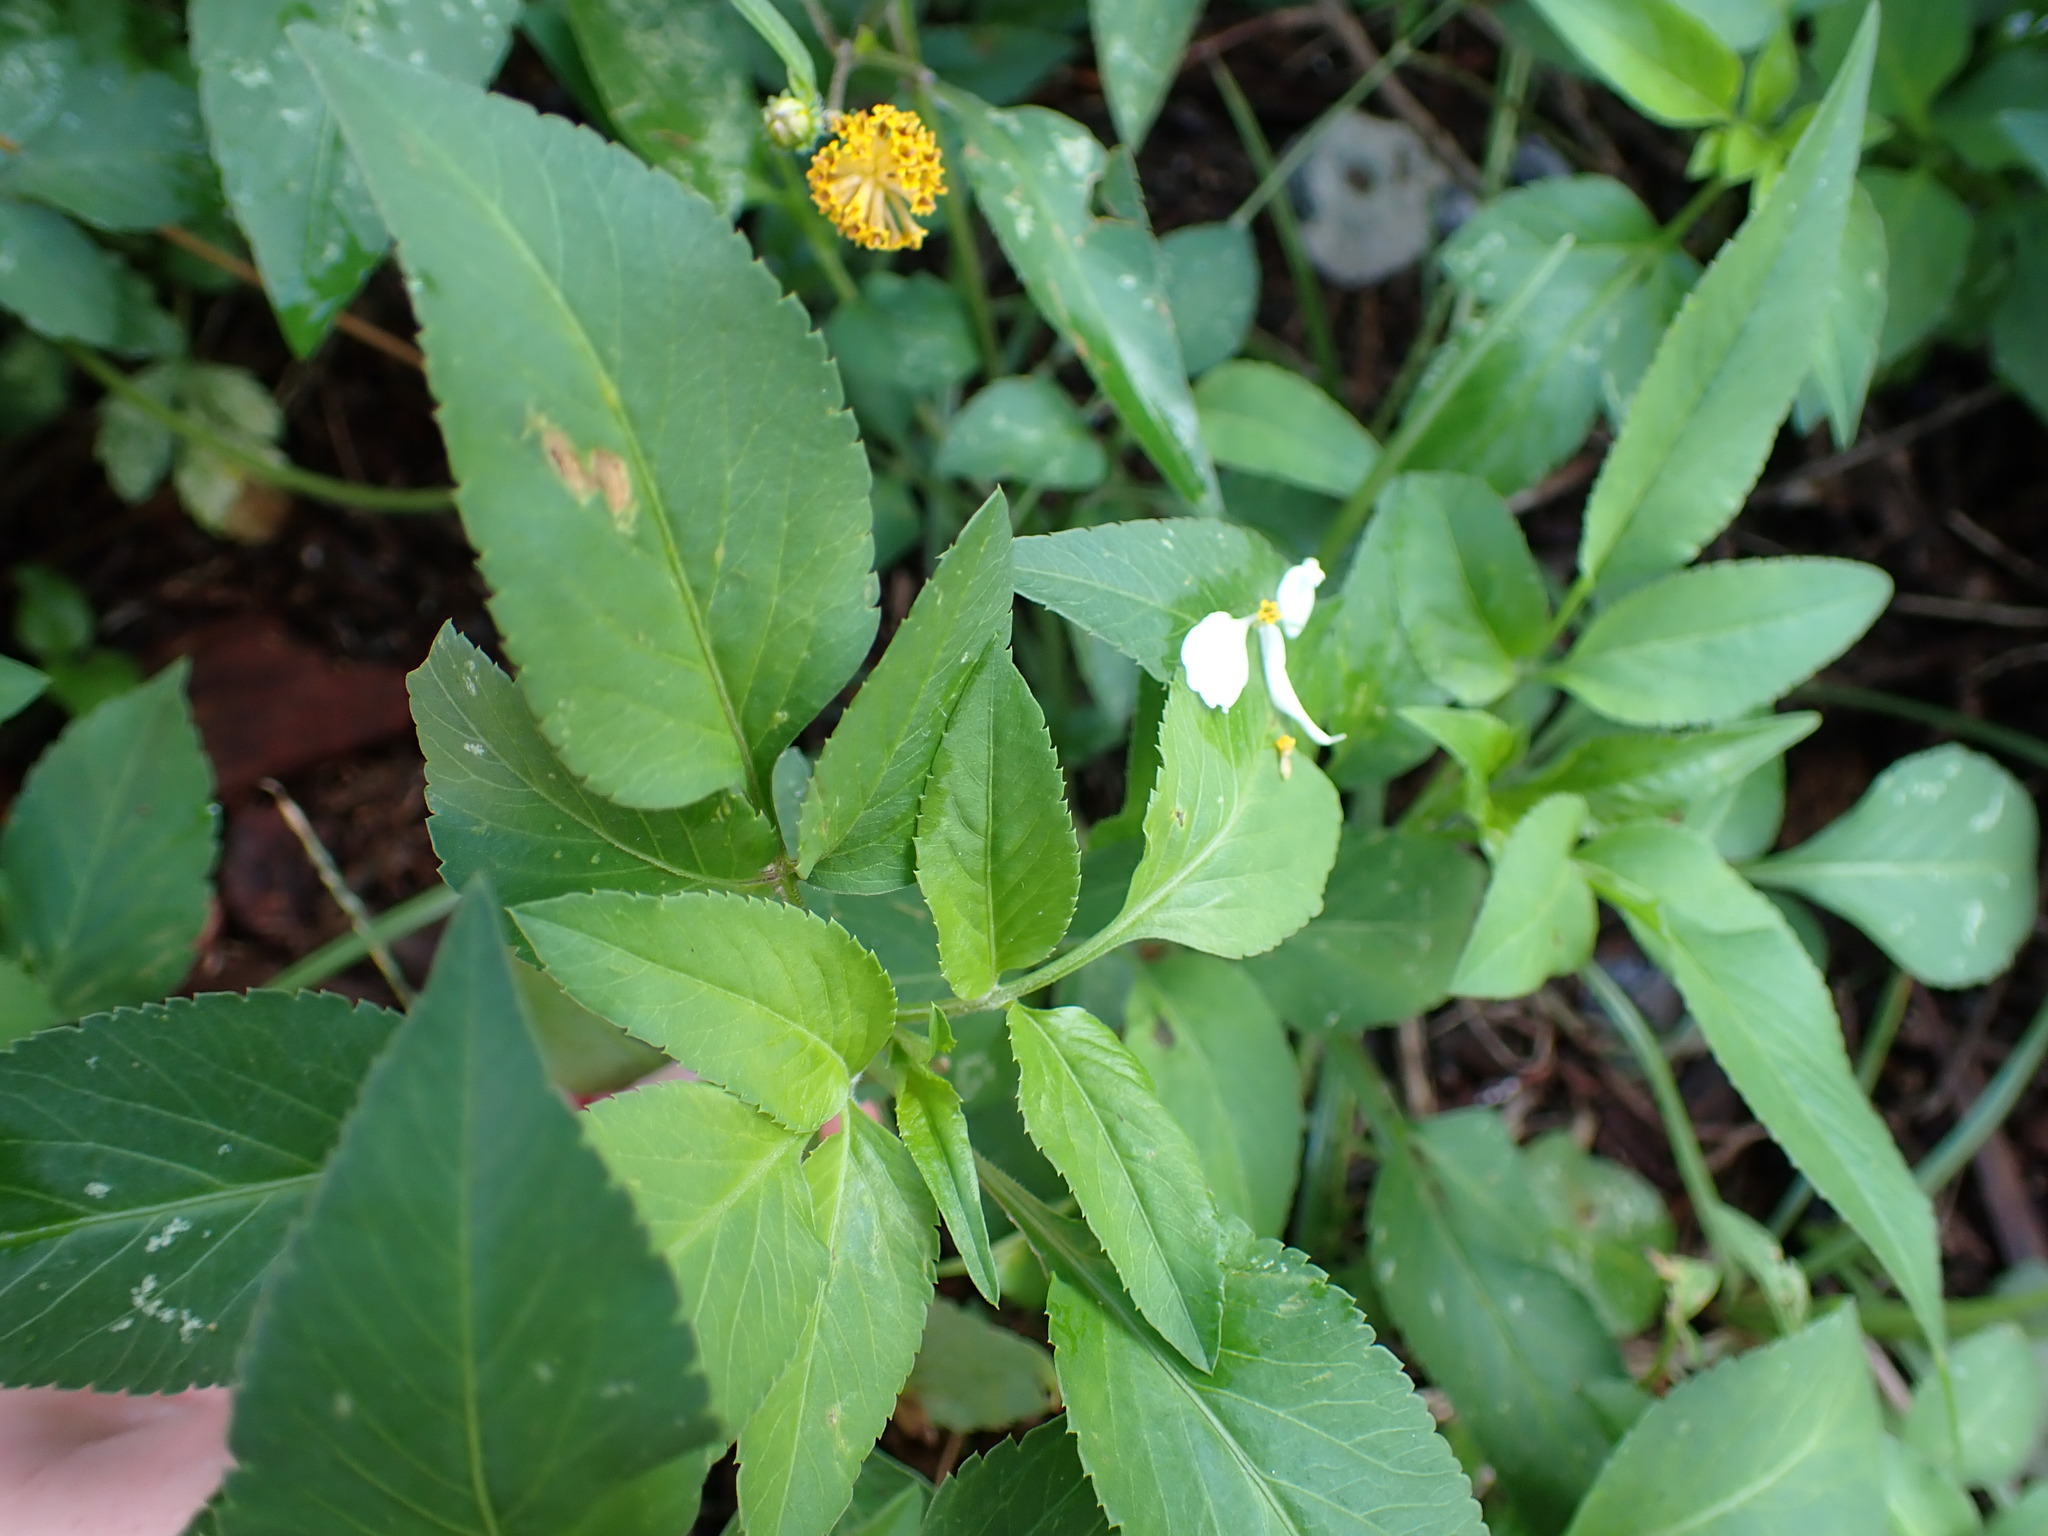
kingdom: Plantae
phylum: Tracheophyta
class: Magnoliopsida
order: Asterales
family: Asteraceae
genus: Bidens
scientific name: Bidens alba
